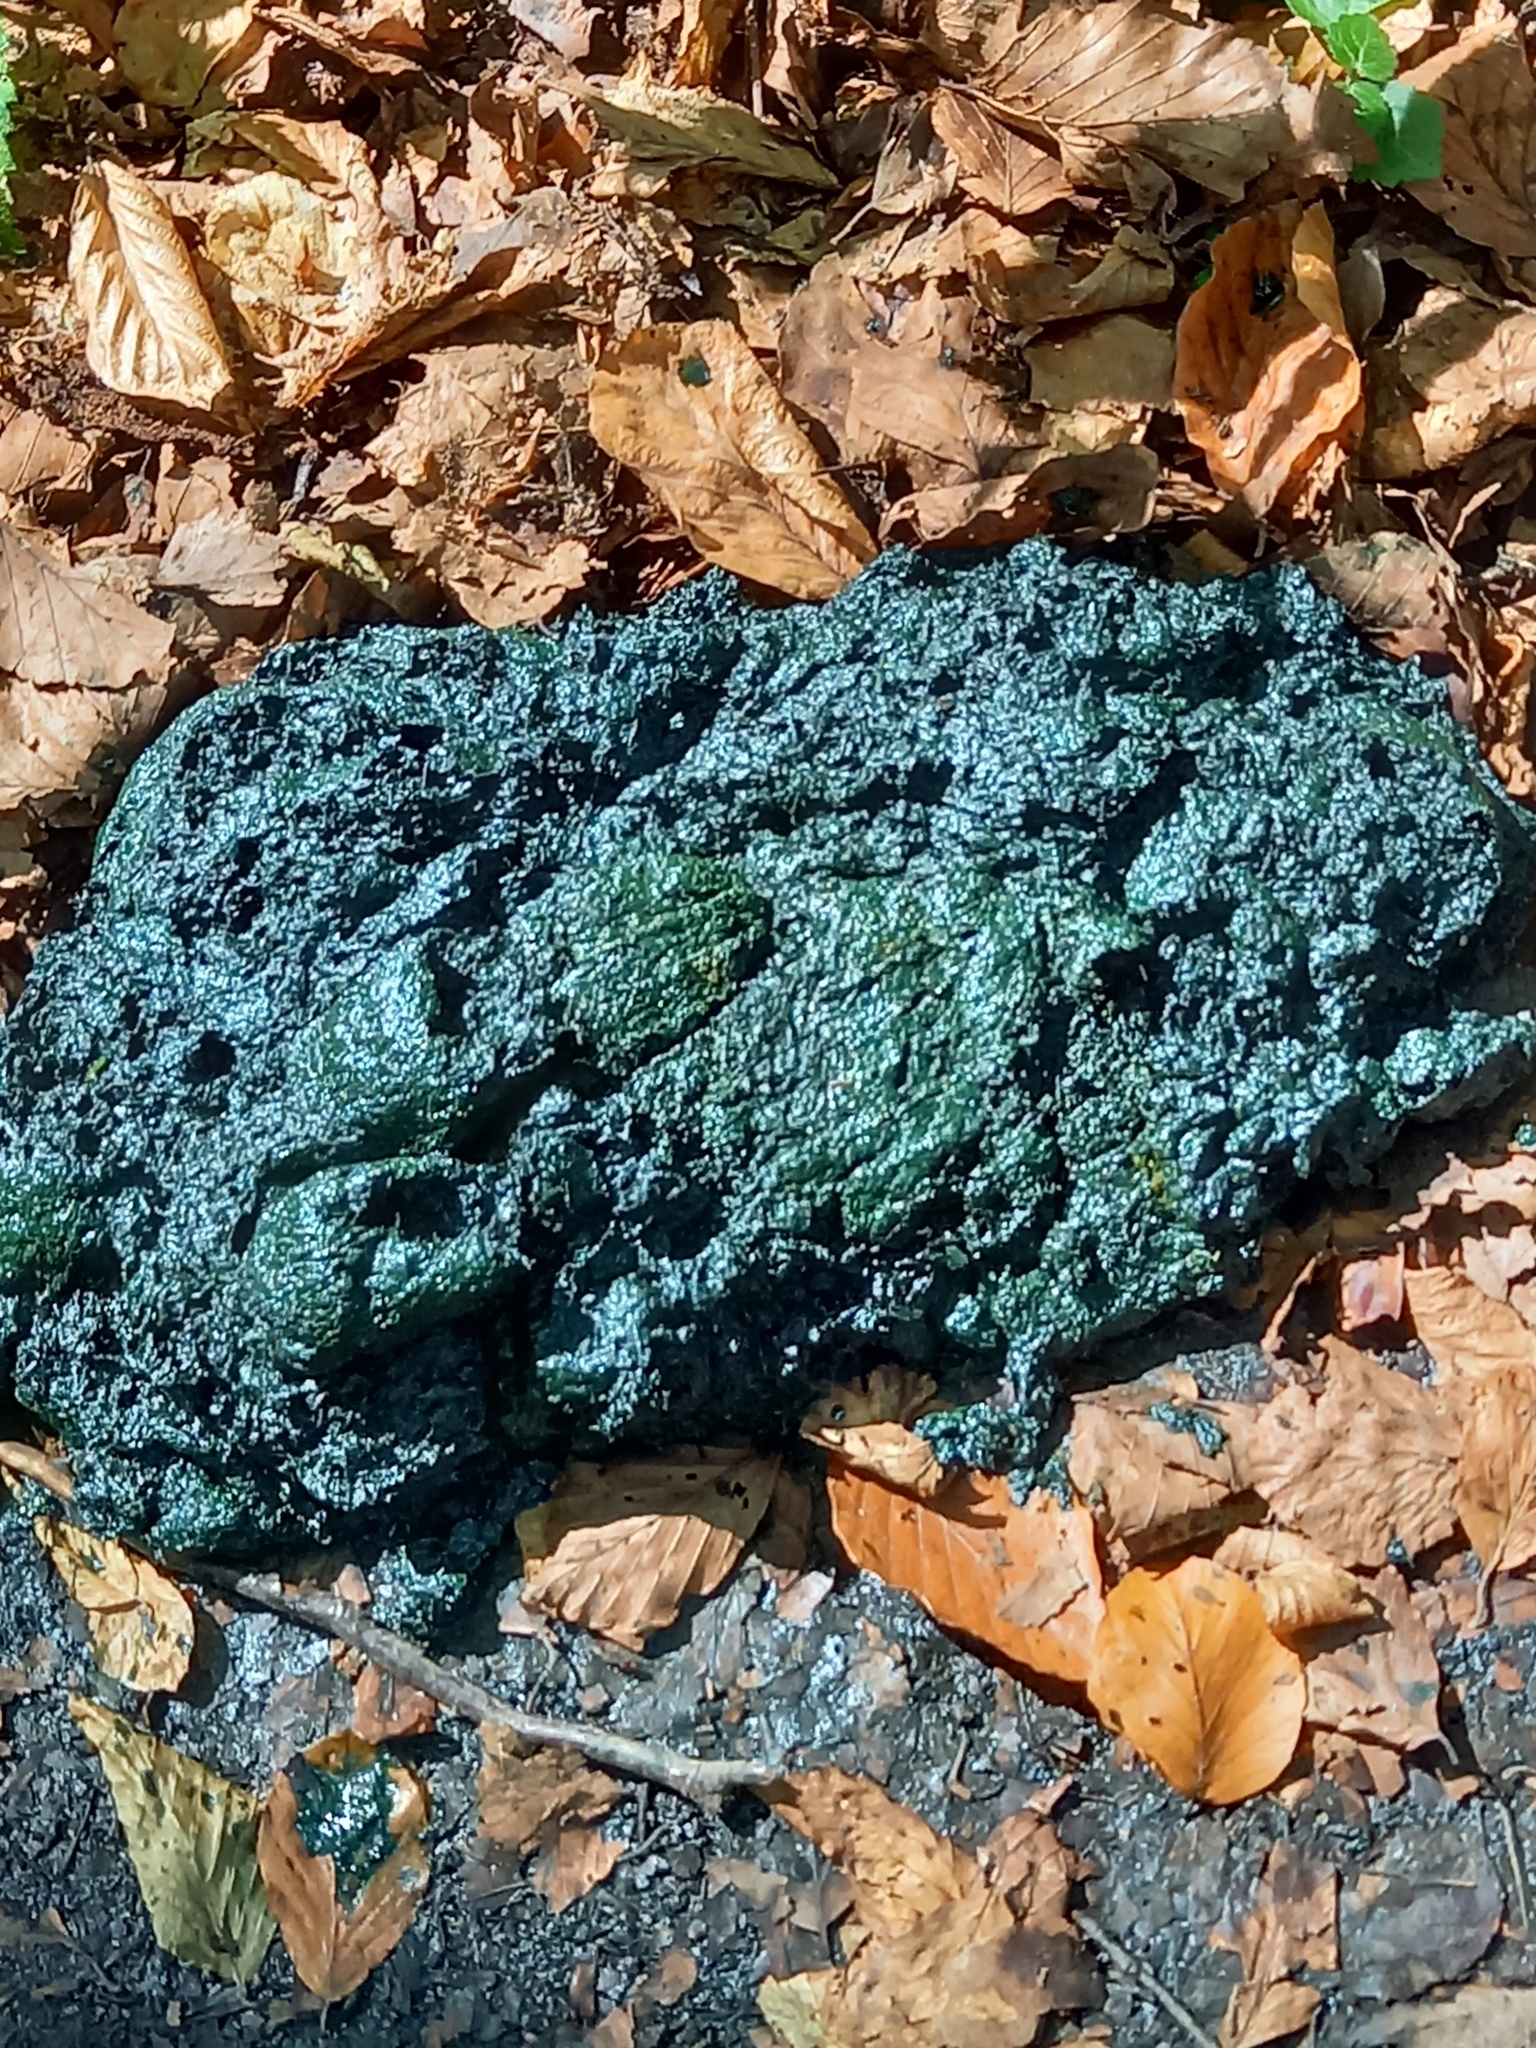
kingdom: Animalia
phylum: Chordata
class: Mammalia
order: Carnivora
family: Ursidae
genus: Ursus
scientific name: Ursus arctos
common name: Brown bear
